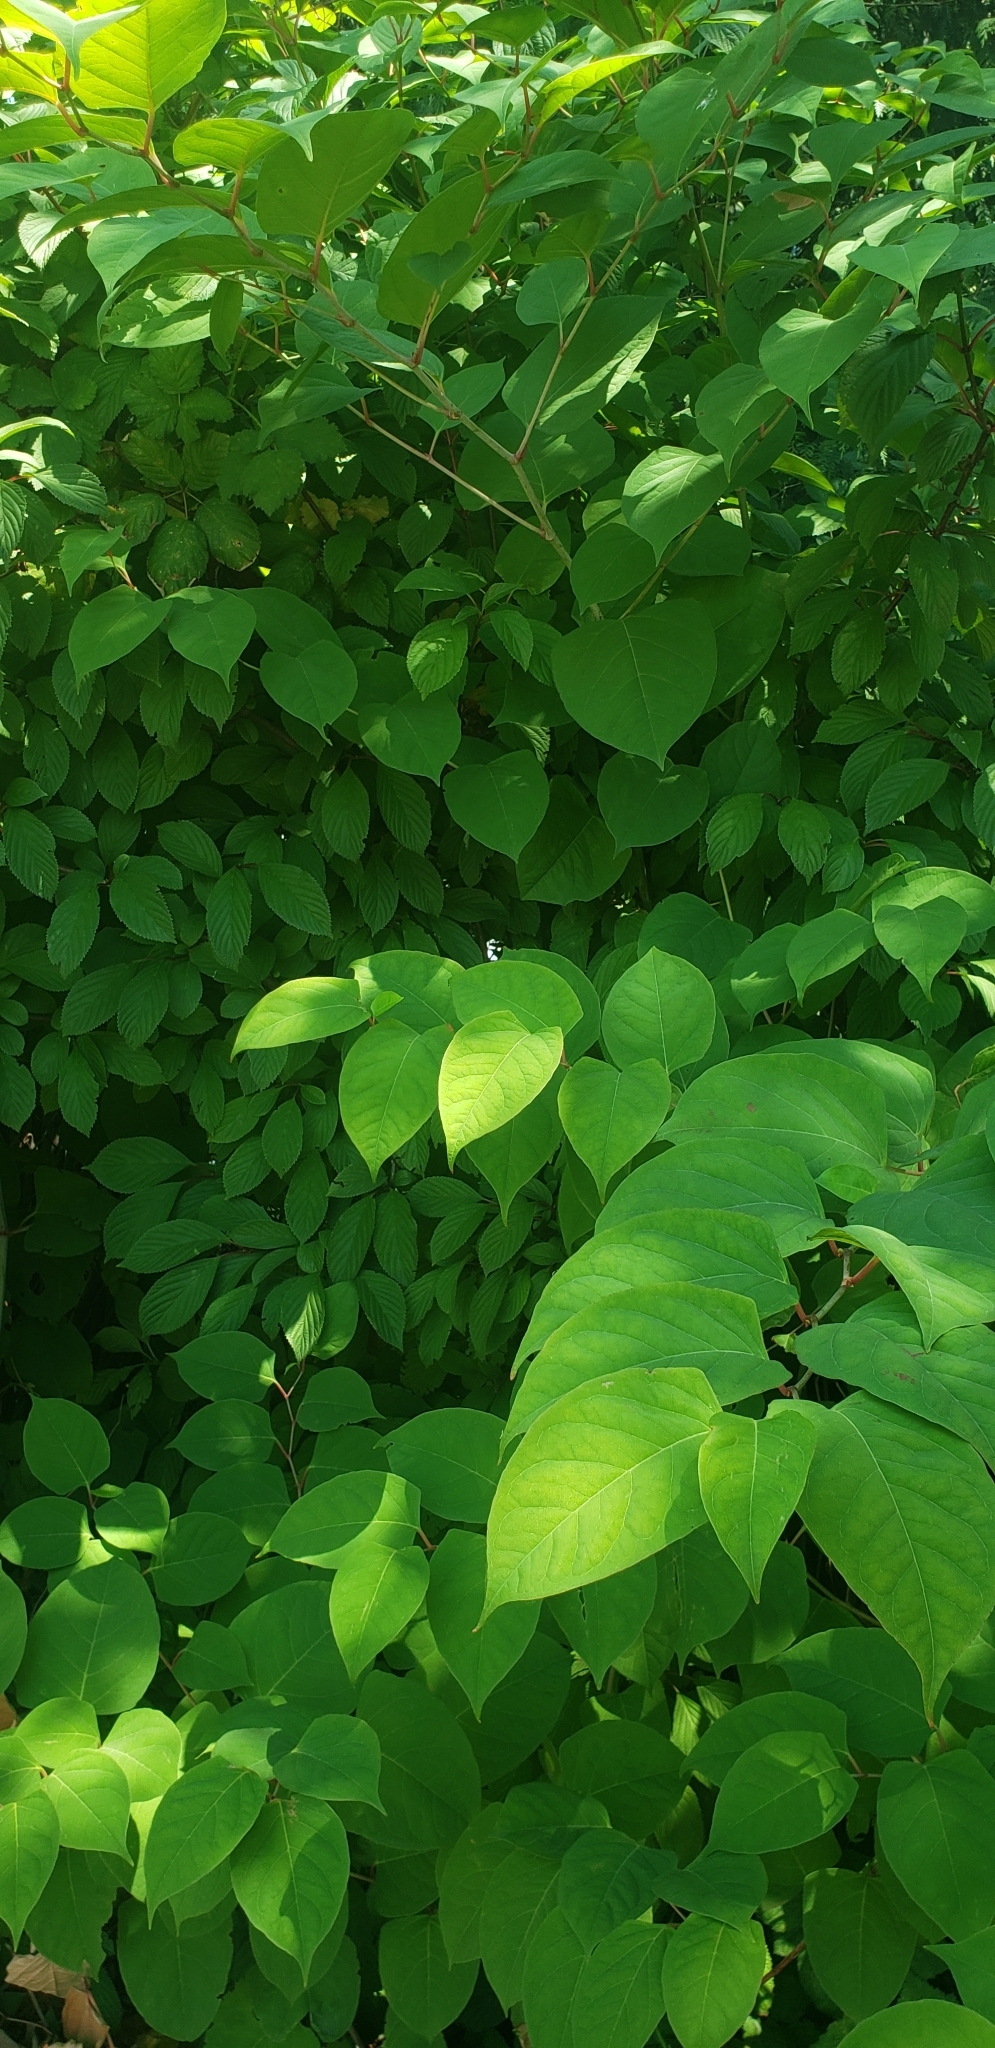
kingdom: Plantae
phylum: Tracheophyta
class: Magnoliopsida
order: Caryophyllales
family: Polygonaceae
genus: Reynoutria
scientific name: Reynoutria japonica
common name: Japanese knotweed
